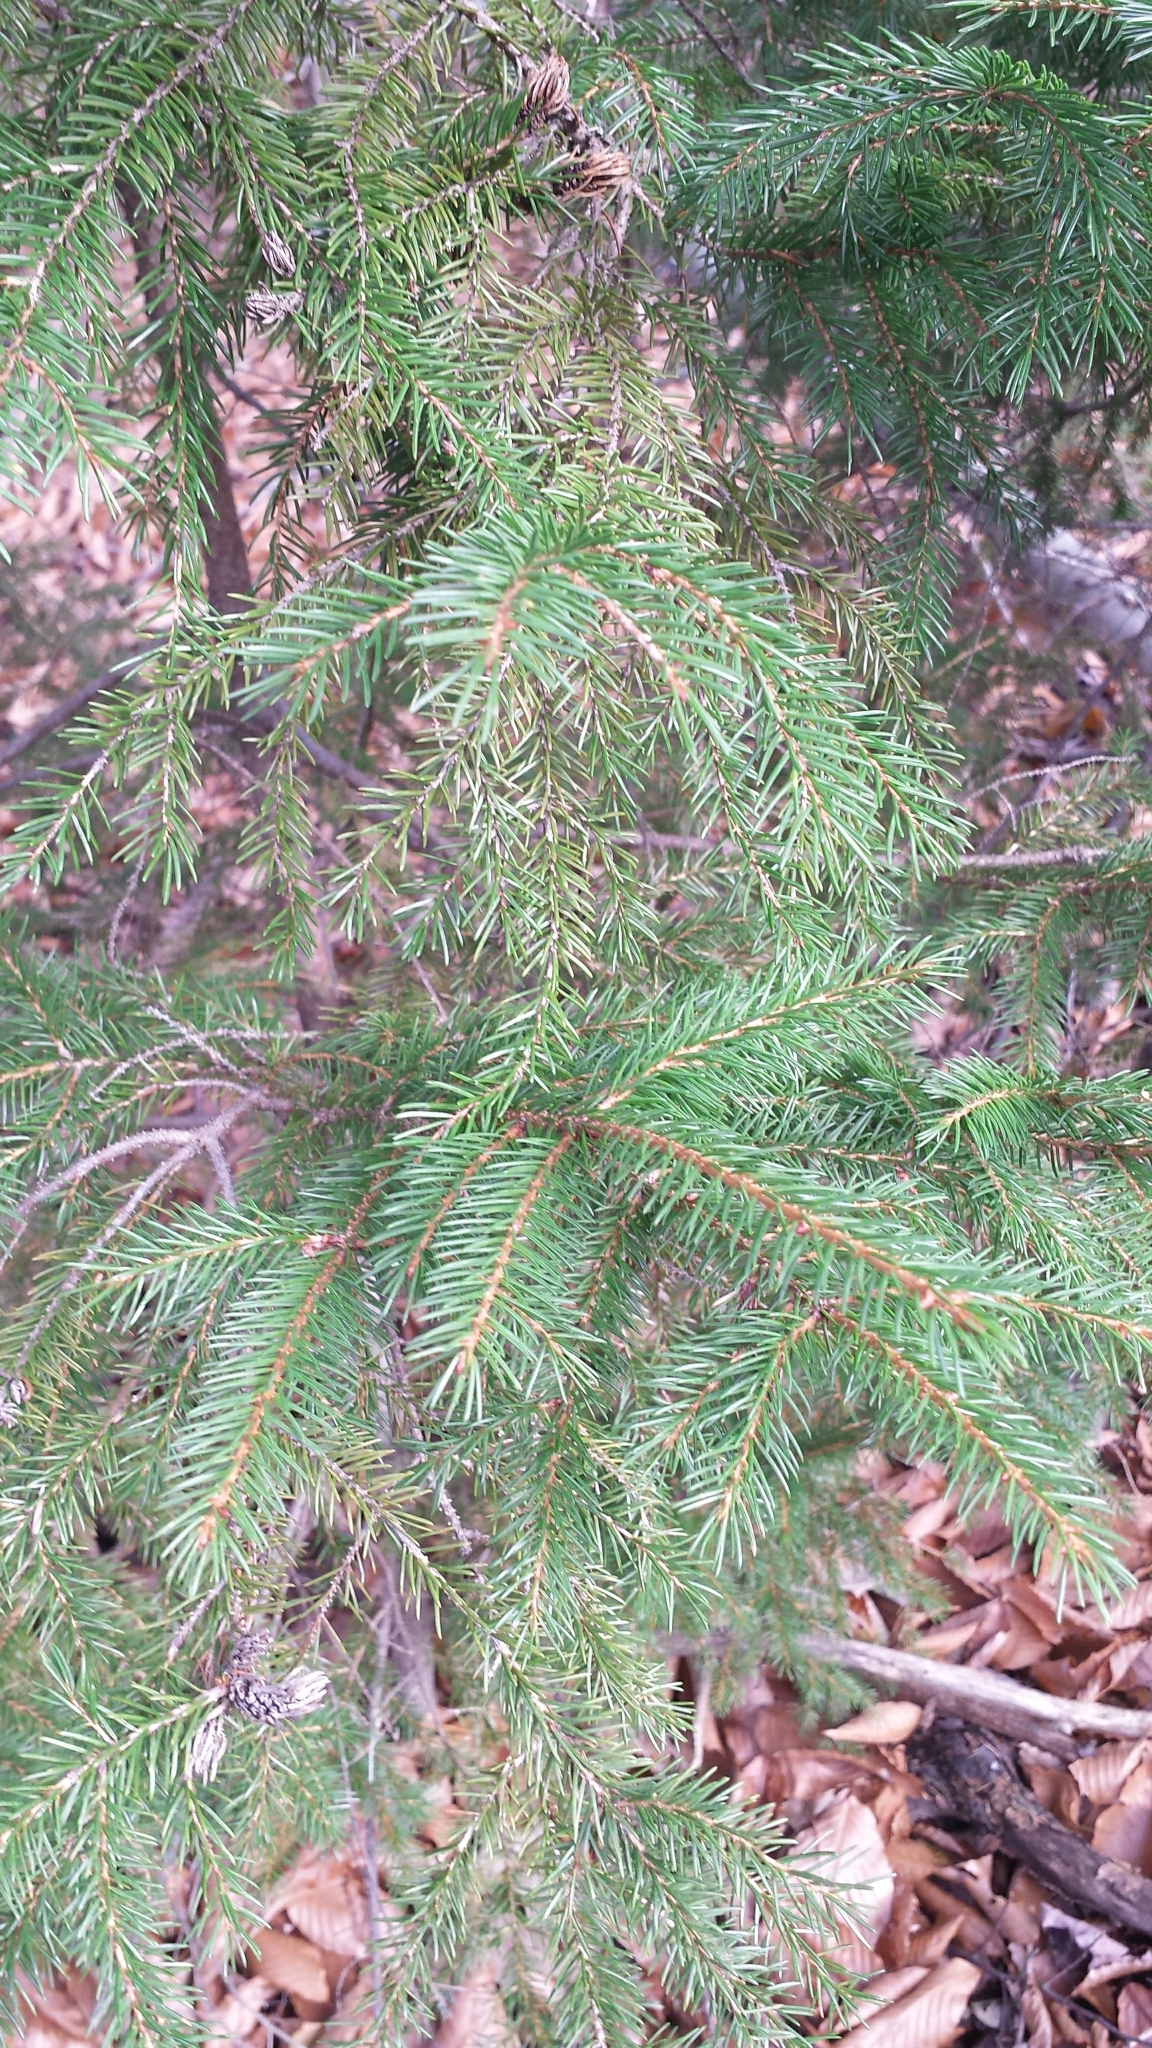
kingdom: Plantae
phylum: Tracheophyta
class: Pinopsida
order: Pinales
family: Pinaceae
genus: Picea
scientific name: Picea rubens
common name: Red spruce
